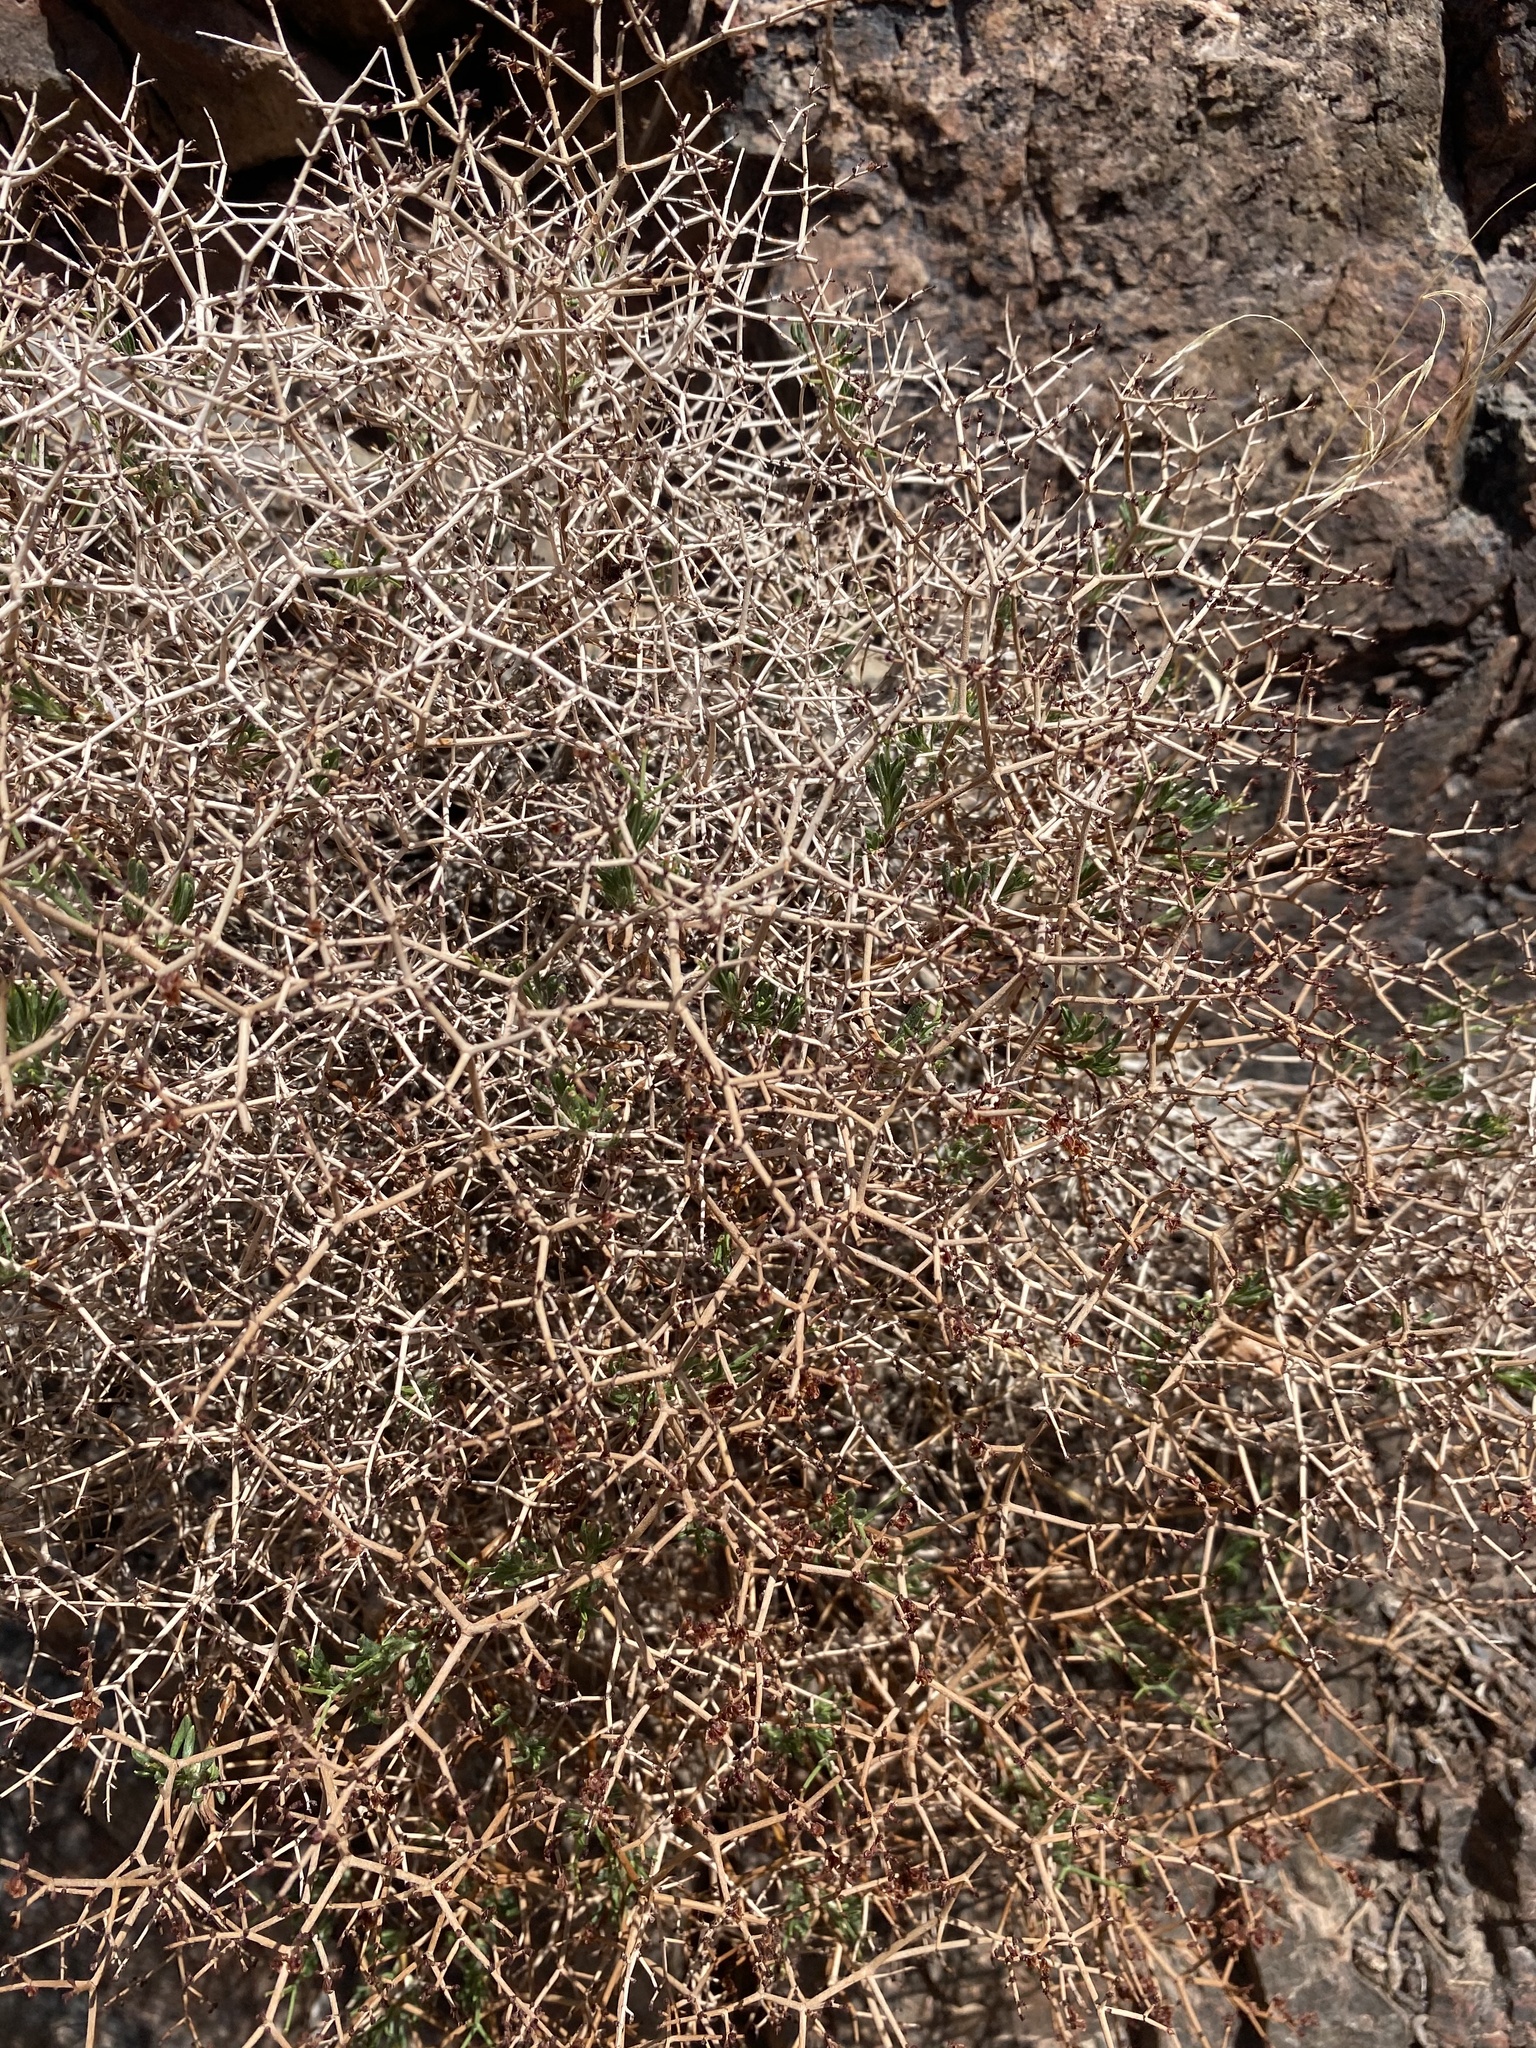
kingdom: Plantae
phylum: Tracheophyta
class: Magnoliopsida
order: Caryophyllales
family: Polygonaceae
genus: Eriogonum
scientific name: Eriogonum heermannii
